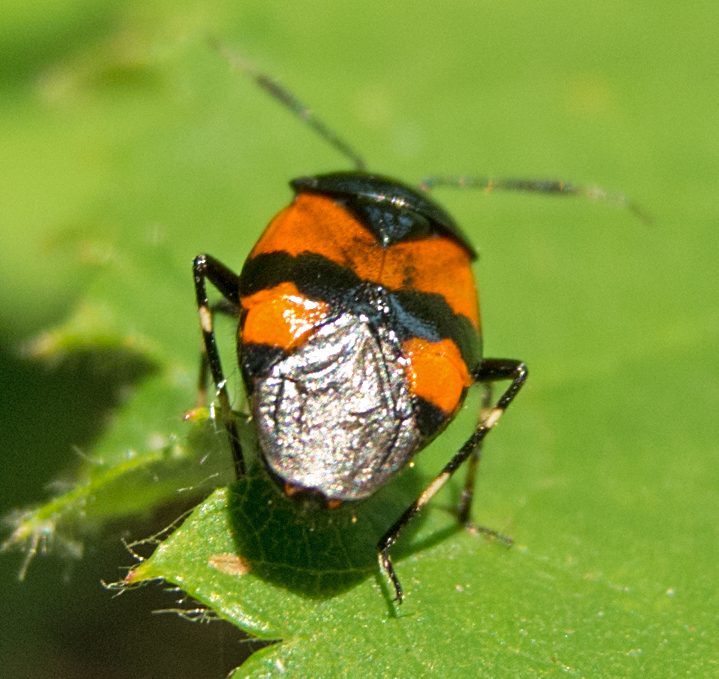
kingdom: Animalia
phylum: Arthropoda
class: Insecta
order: Hemiptera
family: Miridae
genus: Deraeocoris
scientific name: Deraeocoris rutilus
